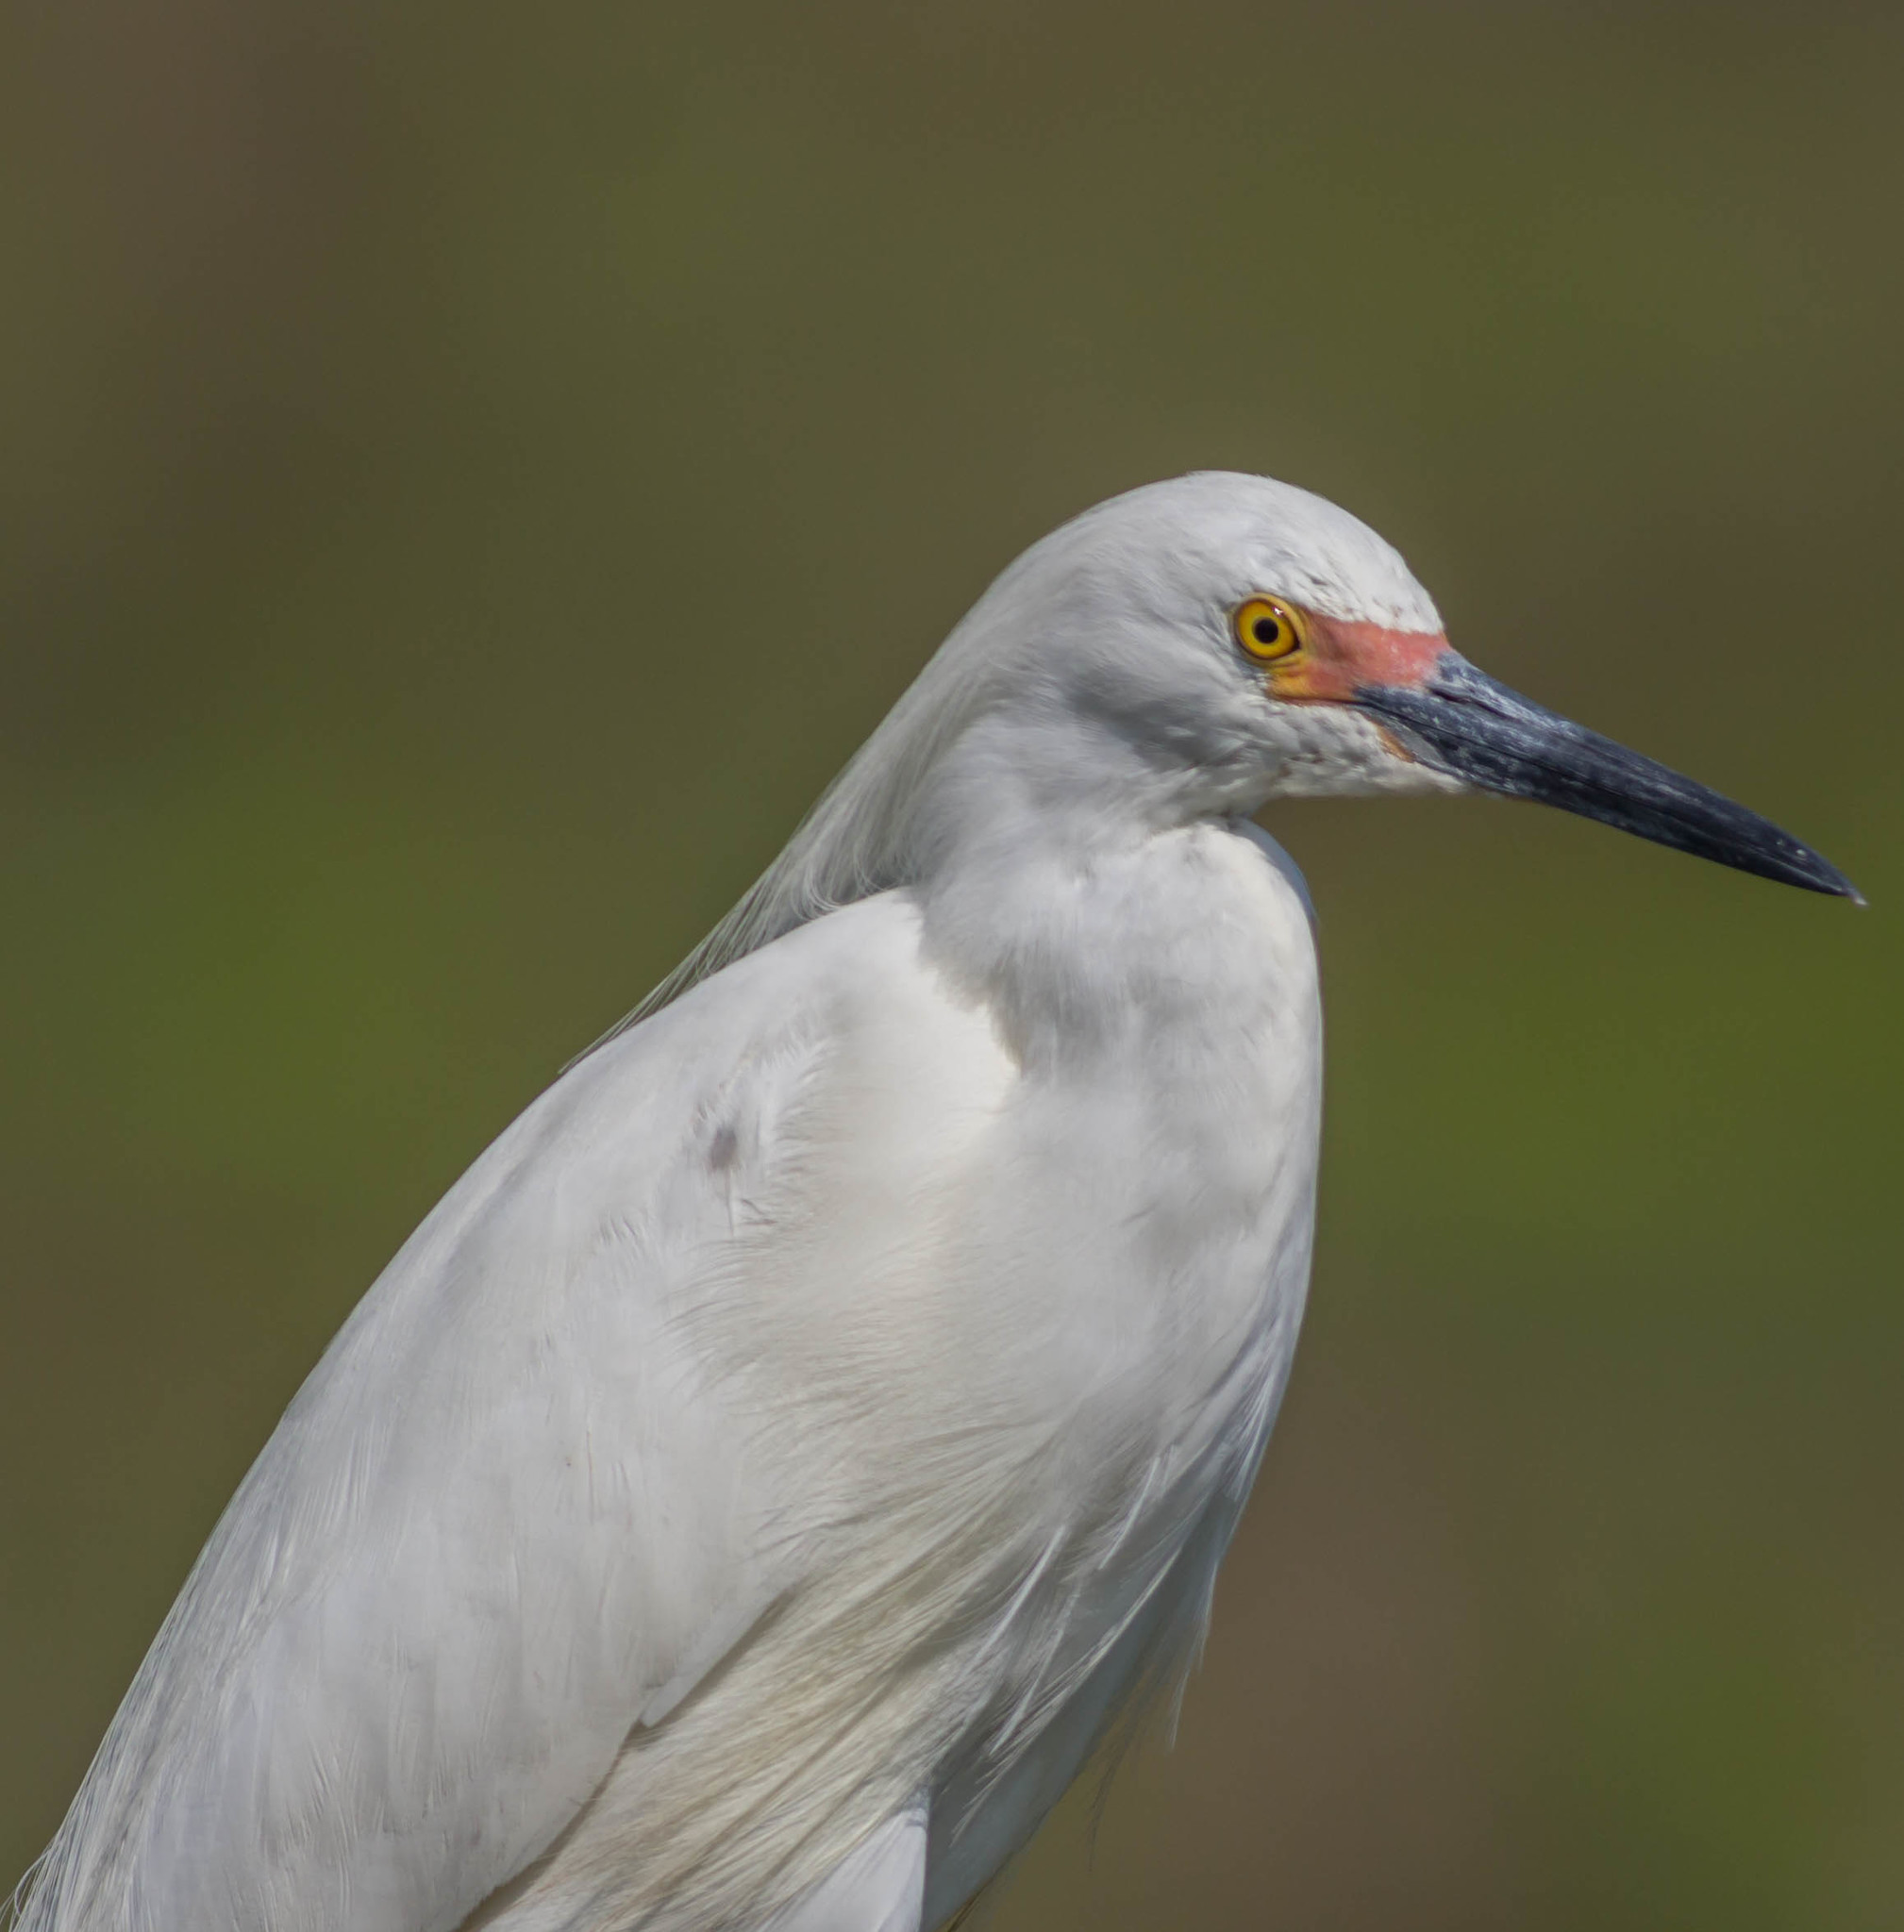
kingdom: Animalia
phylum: Chordata
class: Aves
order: Pelecaniformes
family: Ardeidae
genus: Egretta
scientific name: Egretta thula
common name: Snowy egret
